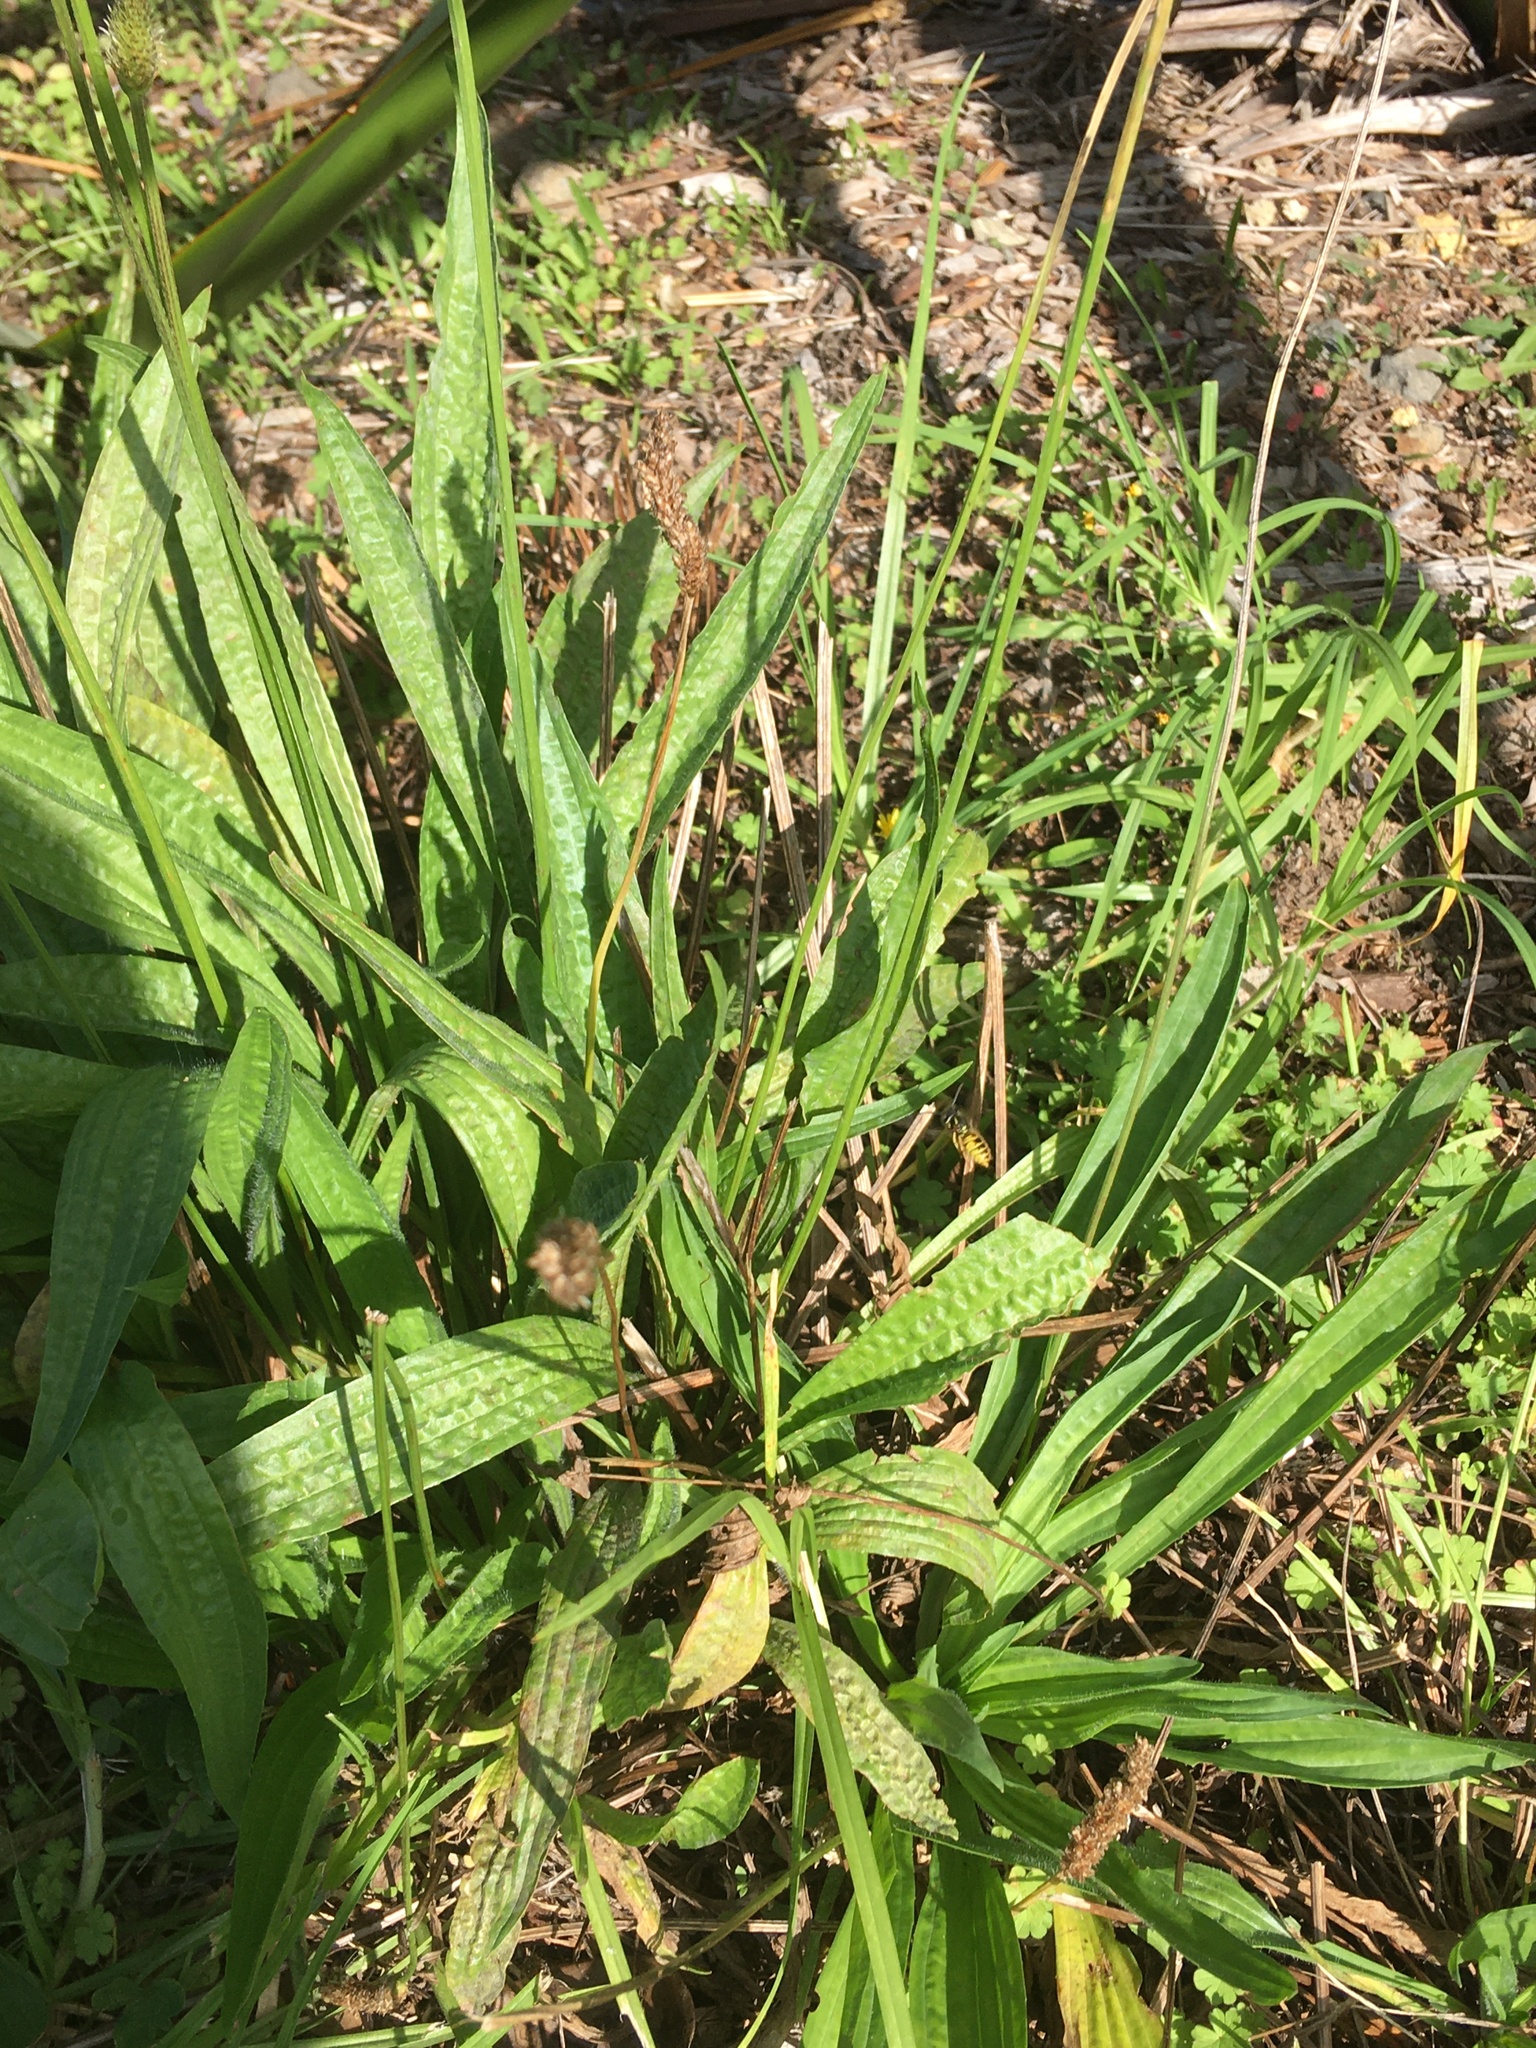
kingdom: Plantae
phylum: Tracheophyta
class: Magnoliopsida
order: Lamiales
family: Plantaginaceae
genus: Plantago
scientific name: Plantago lanceolata
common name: Ribwort plantain
